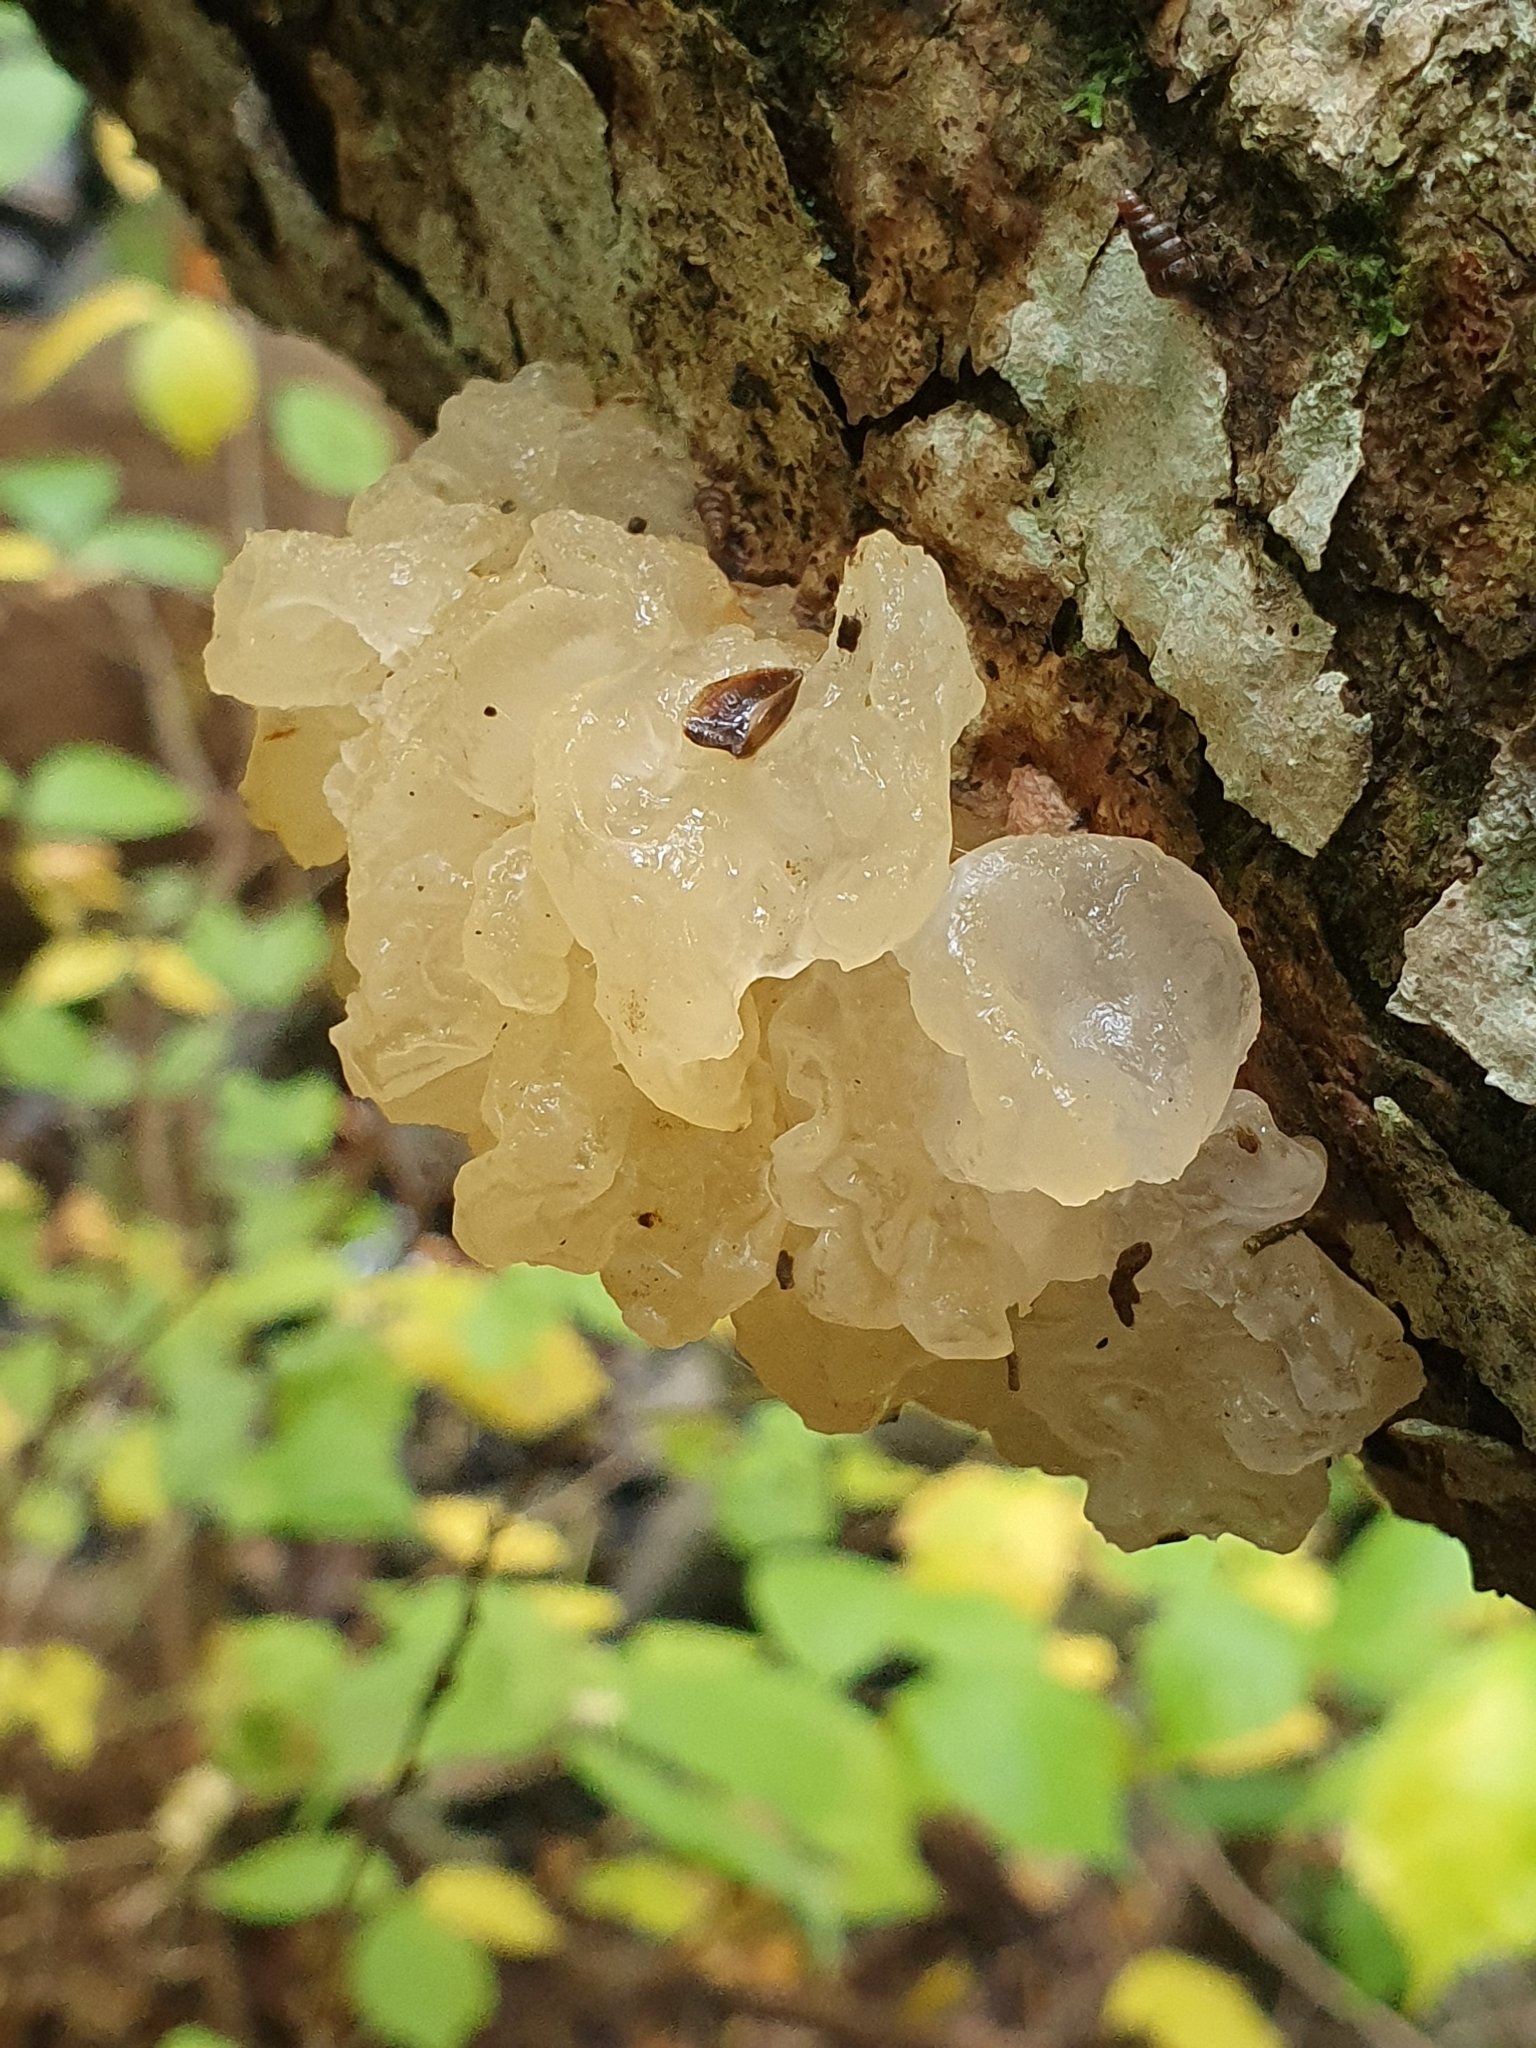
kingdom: Fungi
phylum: Basidiomycota
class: Tremellomycetes
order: Tremellales
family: Tremellaceae
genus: Tremella
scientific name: Tremella mesenterica
